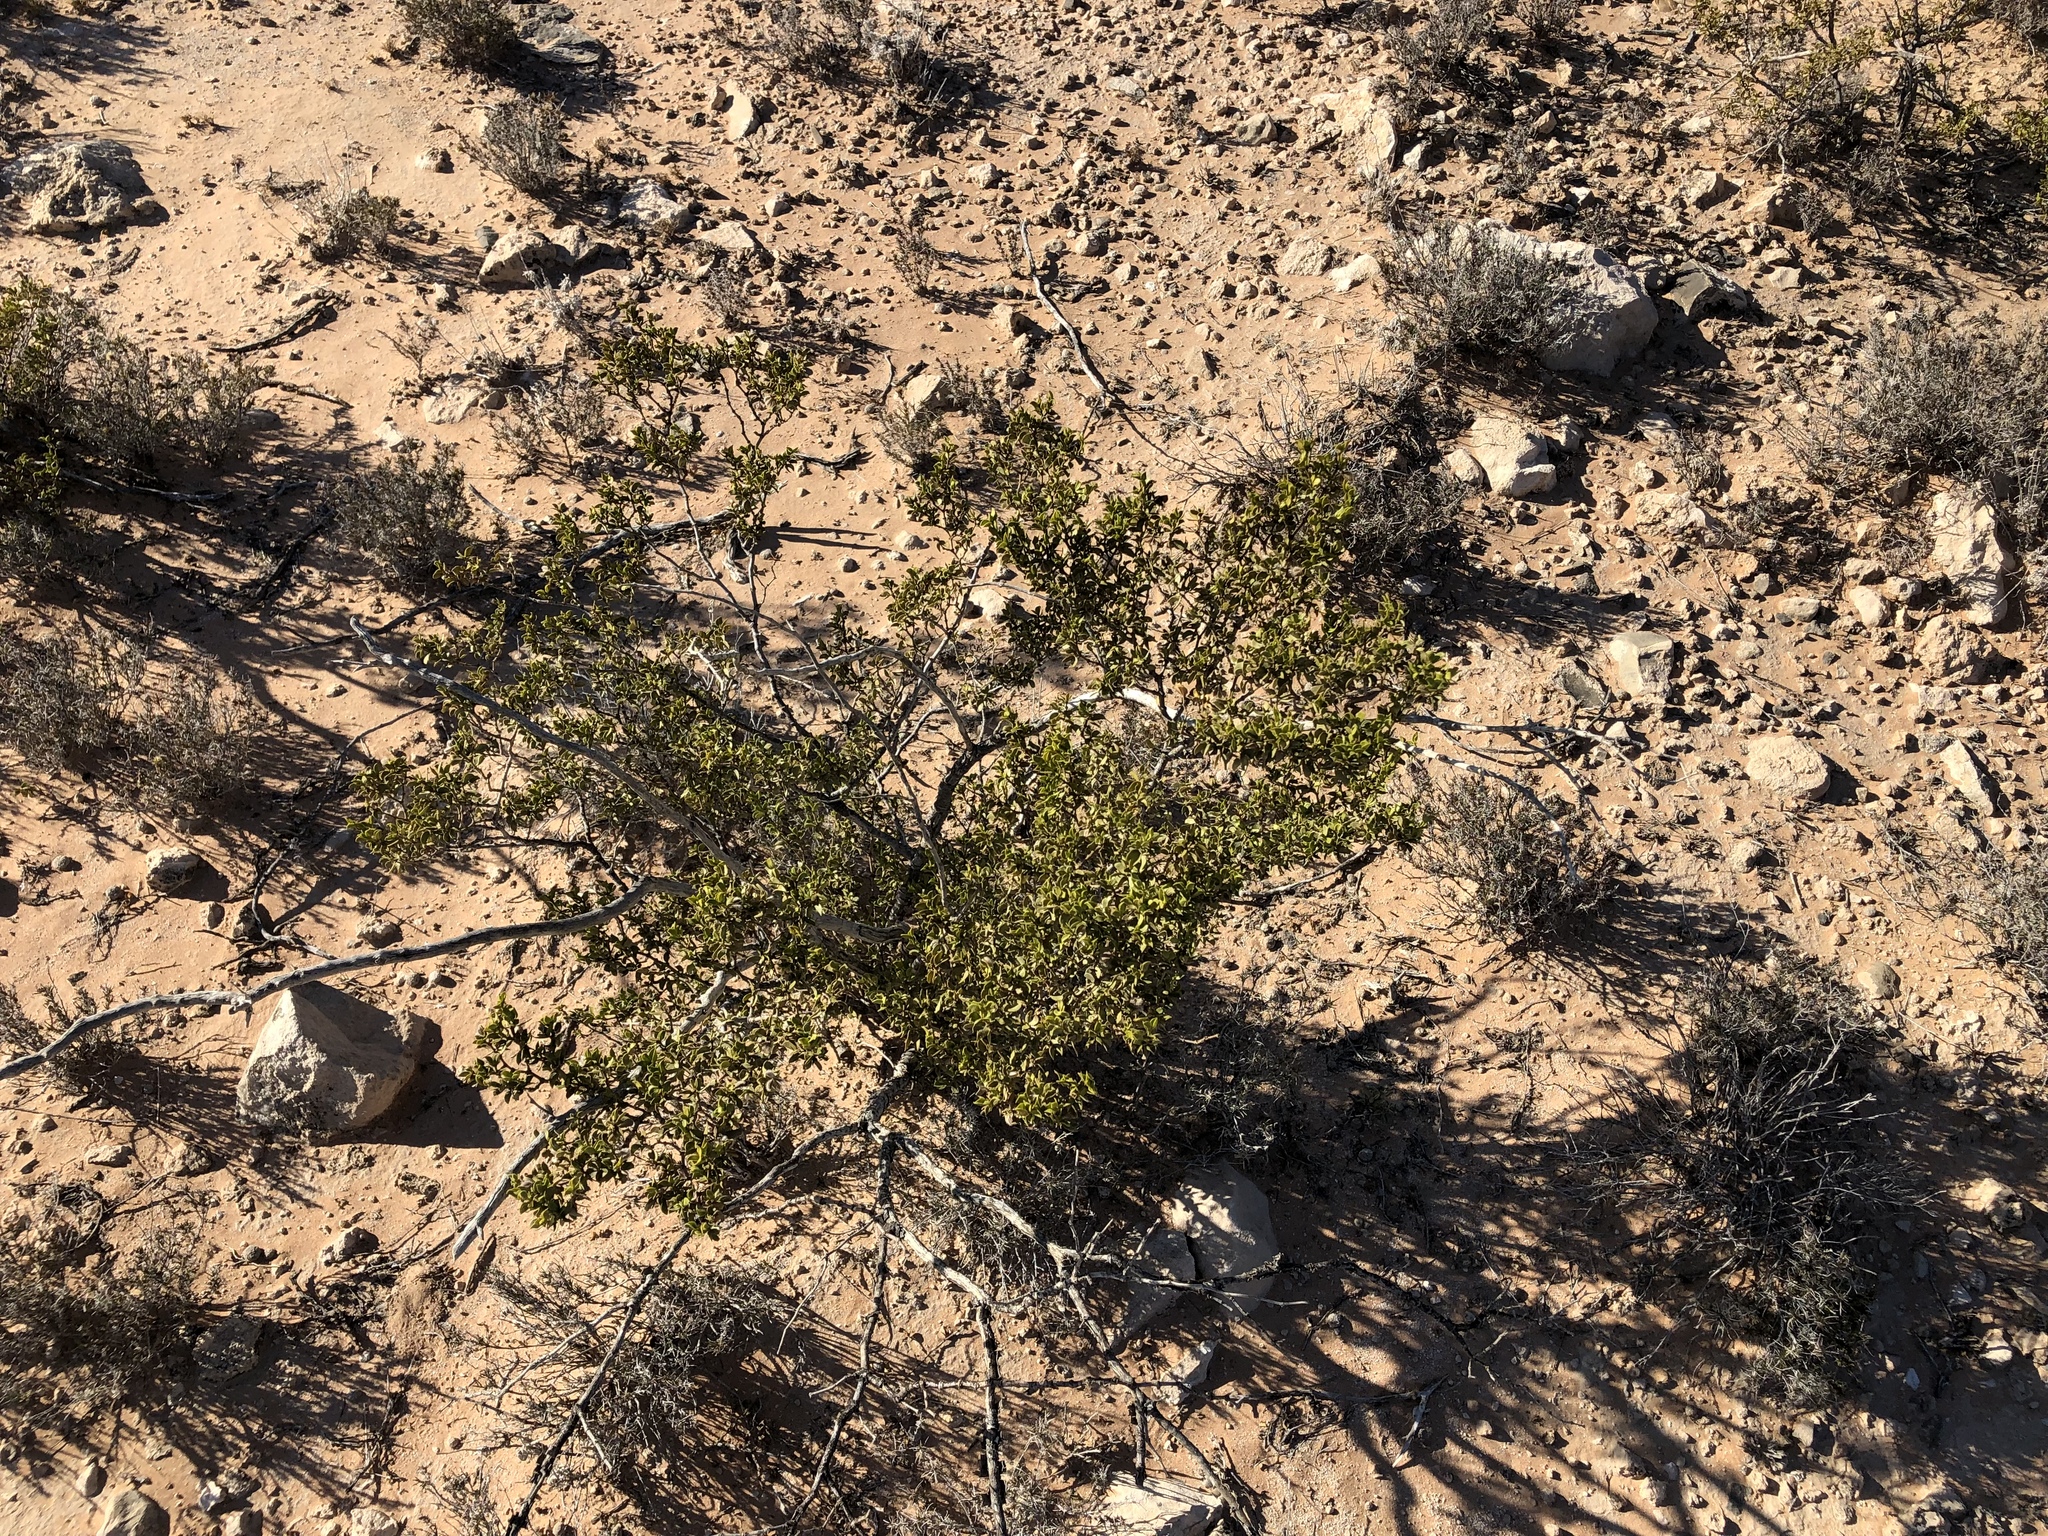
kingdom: Plantae
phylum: Tracheophyta
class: Magnoliopsida
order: Zygophyllales
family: Zygophyllaceae
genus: Larrea
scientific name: Larrea tridentata
